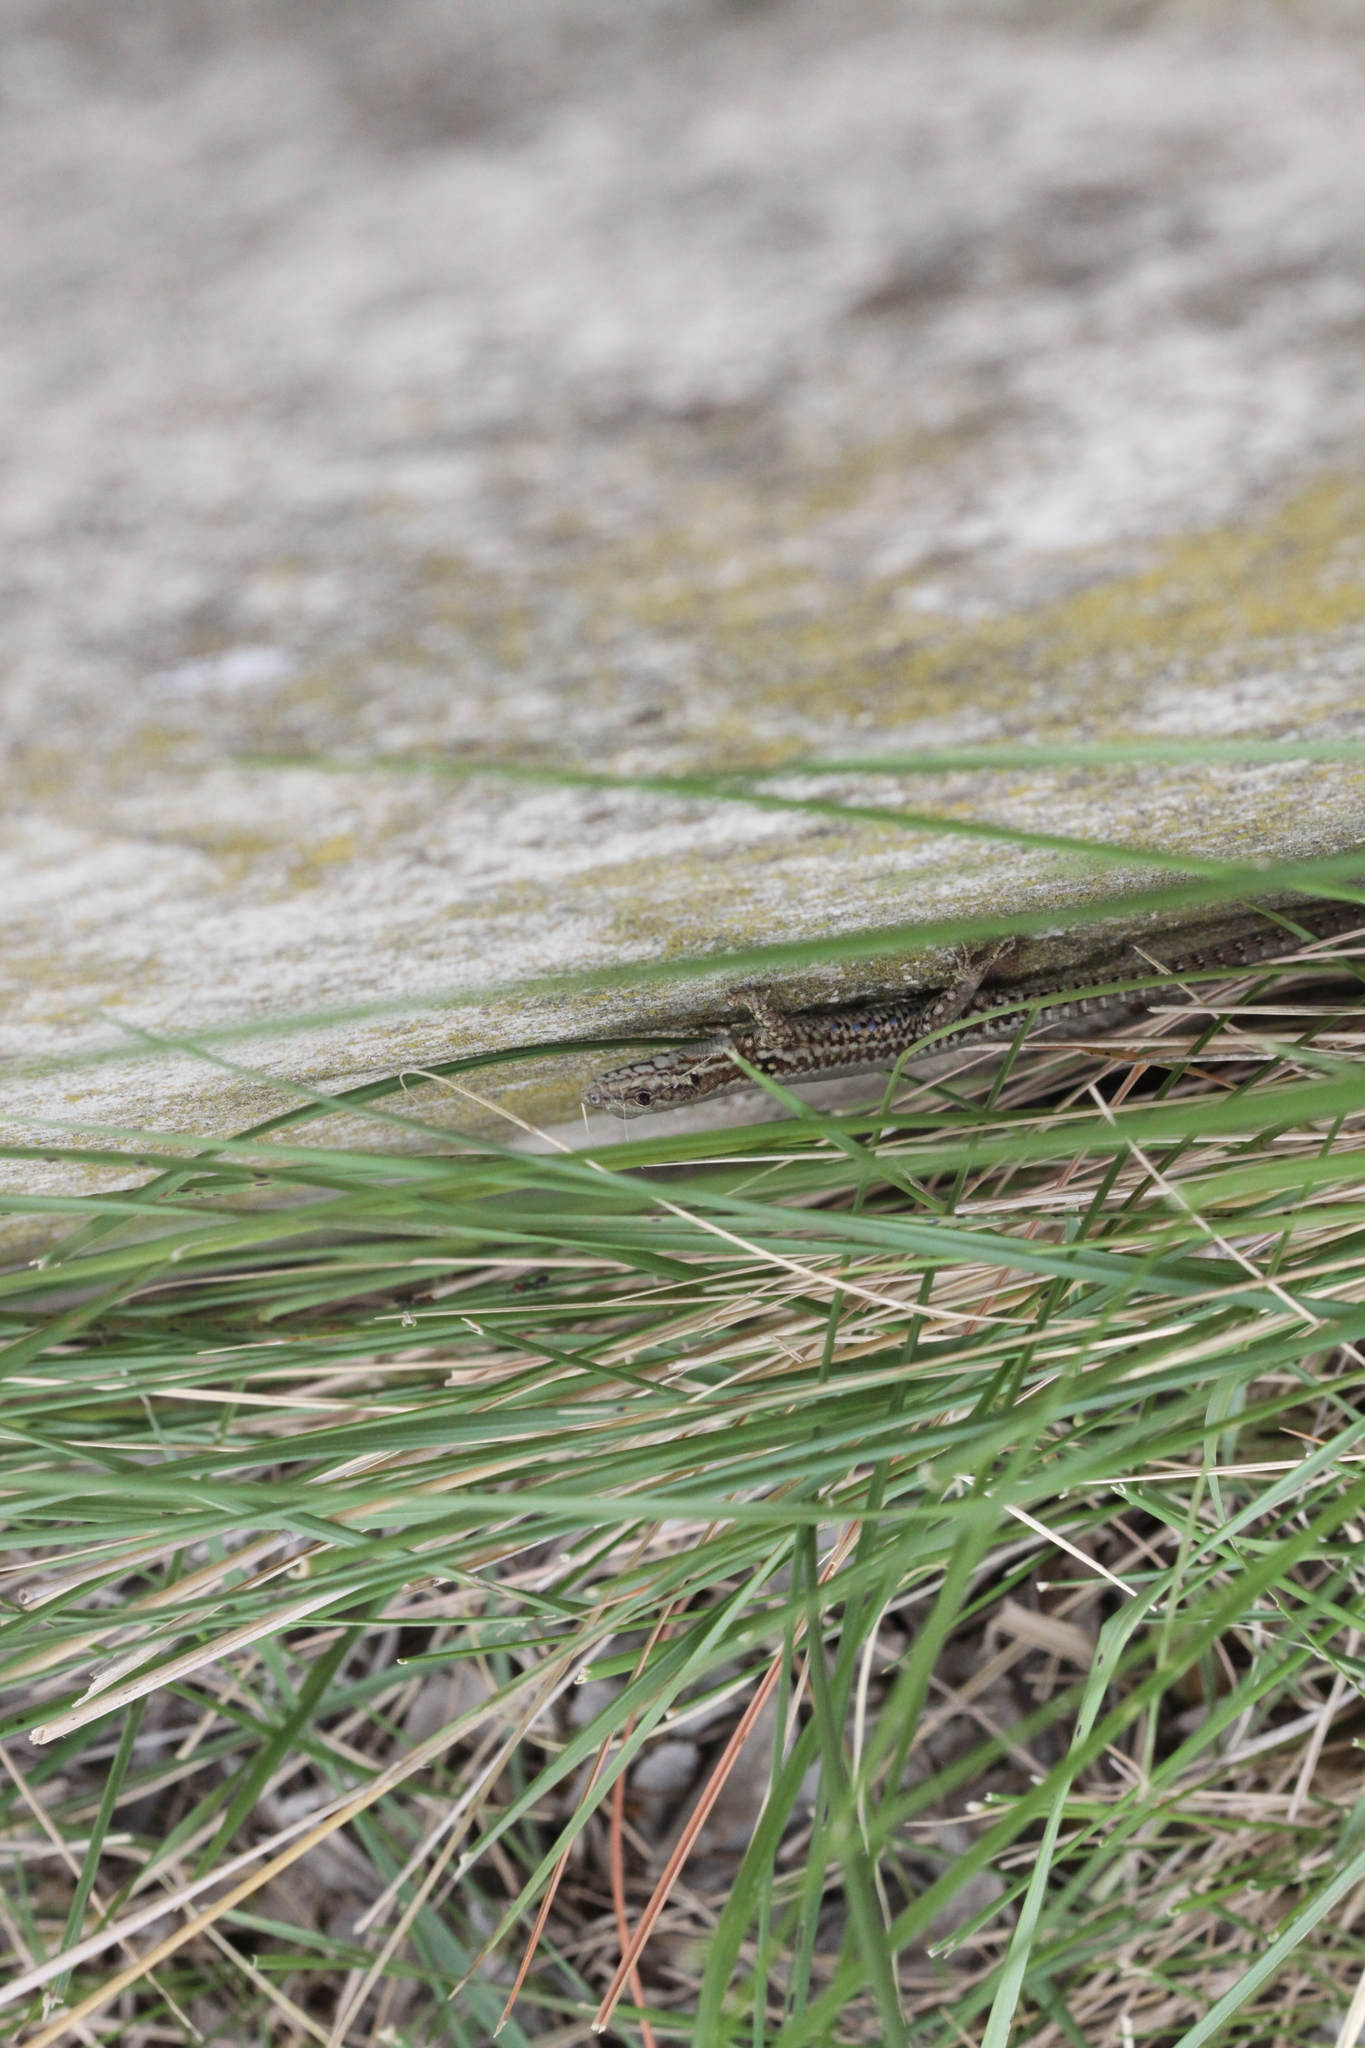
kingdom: Animalia
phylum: Chordata
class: Squamata
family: Lacertidae
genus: Podarcis
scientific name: Podarcis muralis
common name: Common wall lizard
